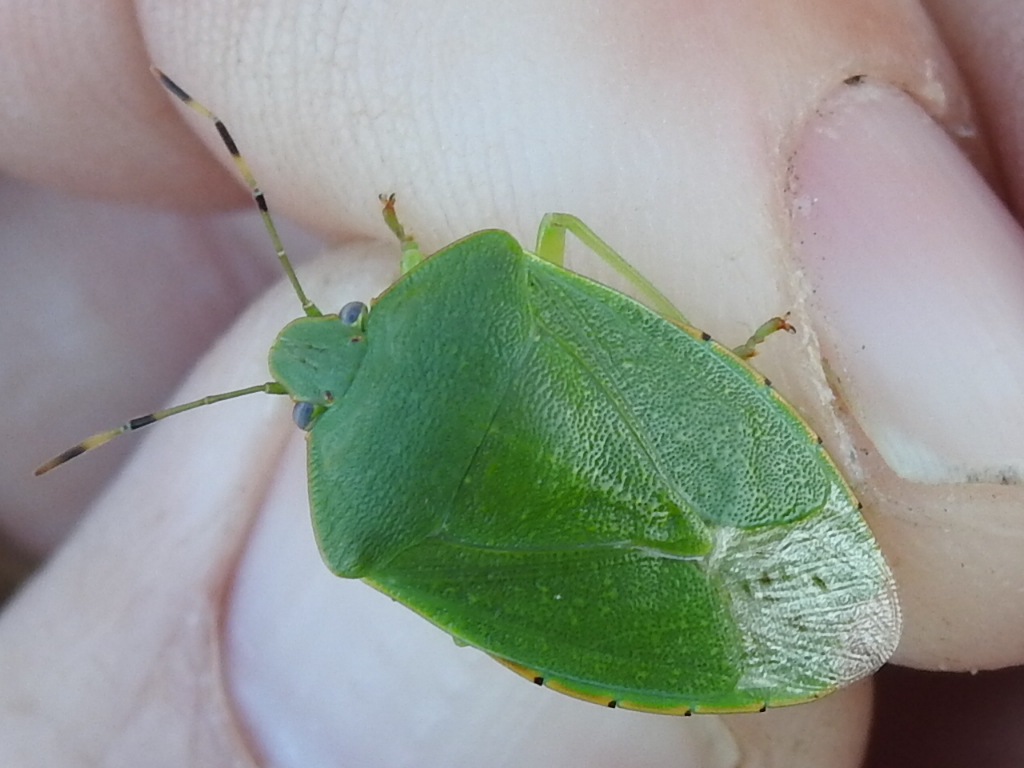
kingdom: Animalia
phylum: Arthropoda
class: Insecta
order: Hemiptera
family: Pentatomidae
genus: Chinavia
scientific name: Chinavia hilaris
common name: Green stink bug
